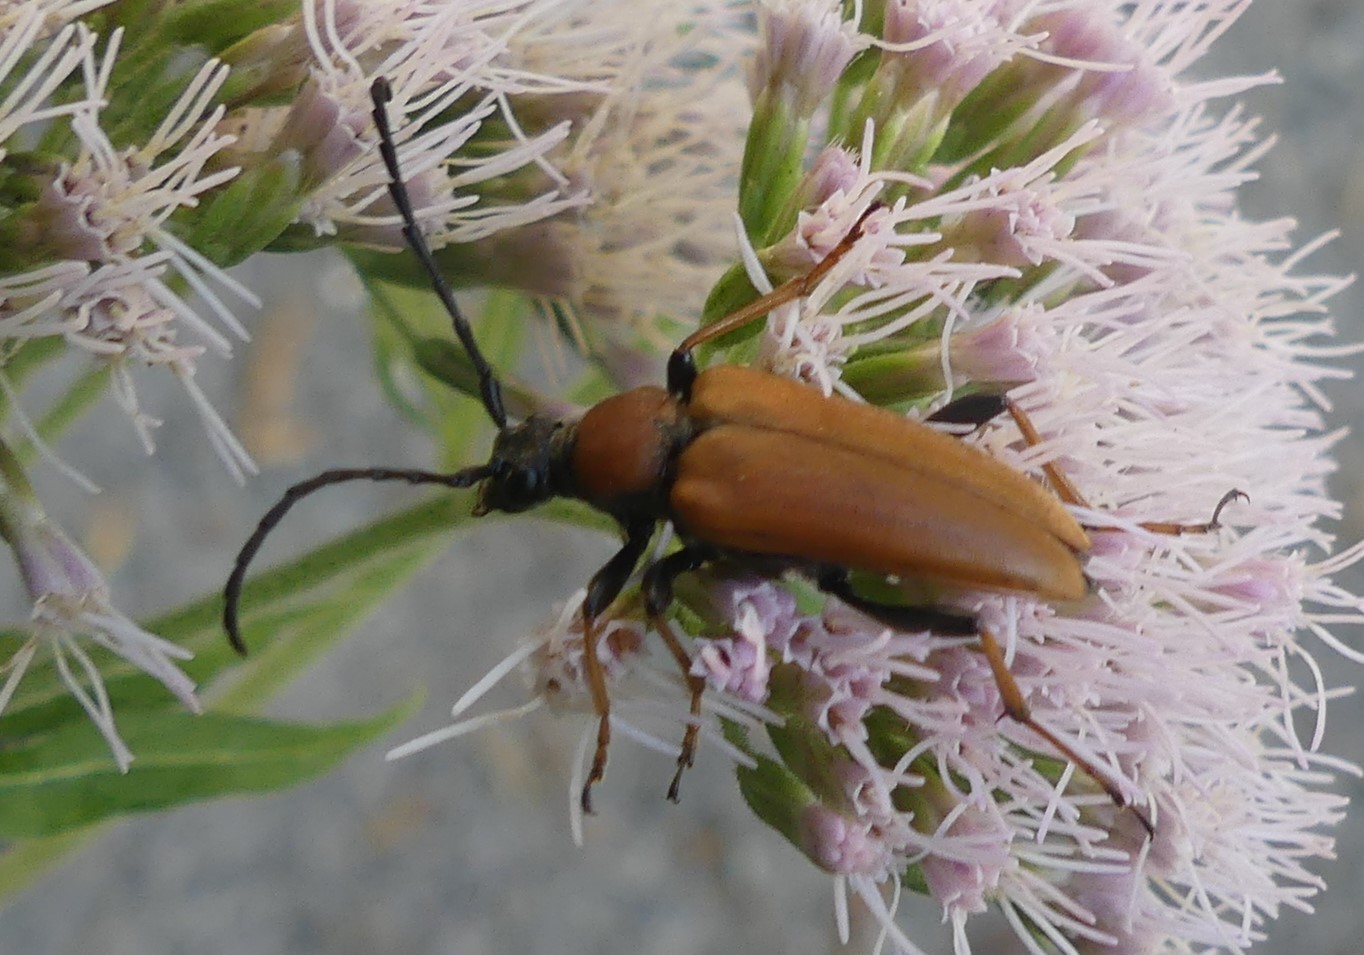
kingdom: Animalia
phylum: Arthropoda
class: Insecta
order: Coleoptera
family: Cerambycidae
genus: Stictoleptura
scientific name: Stictoleptura rubra
